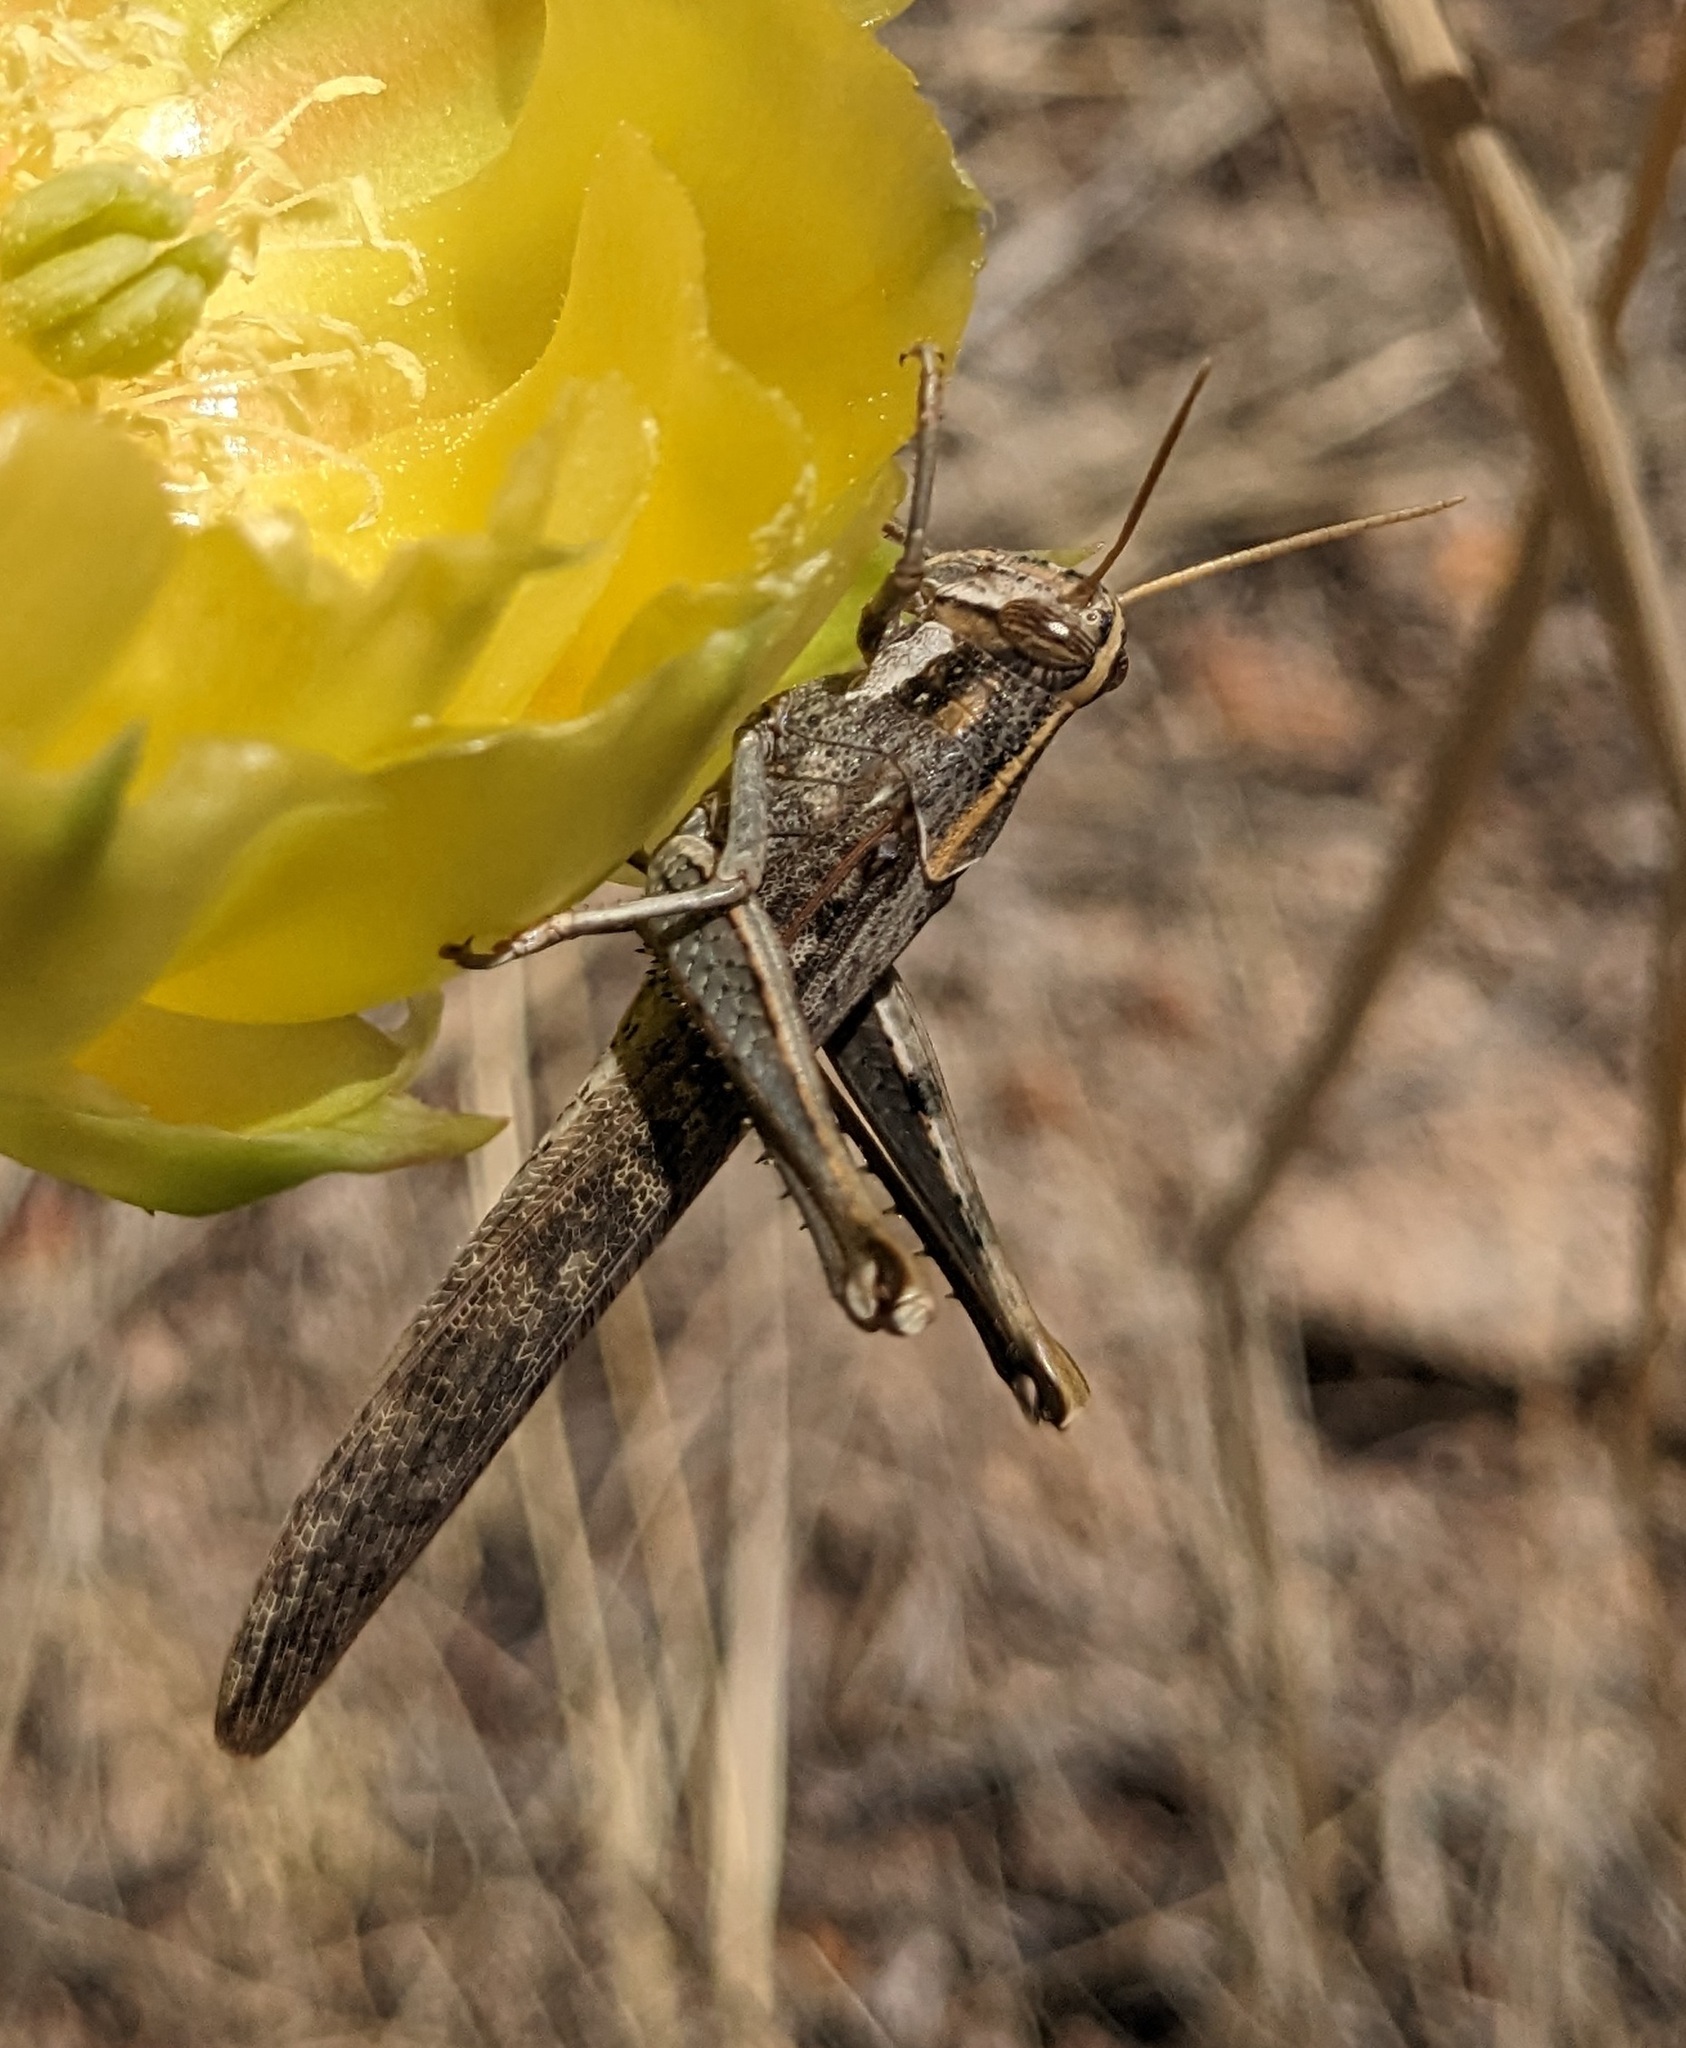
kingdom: Animalia
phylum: Arthropoda
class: Insecta
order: Orthoptera
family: Acrididae
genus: Schistocerca
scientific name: Schistocerca nitens
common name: Vagrant grasshopper
